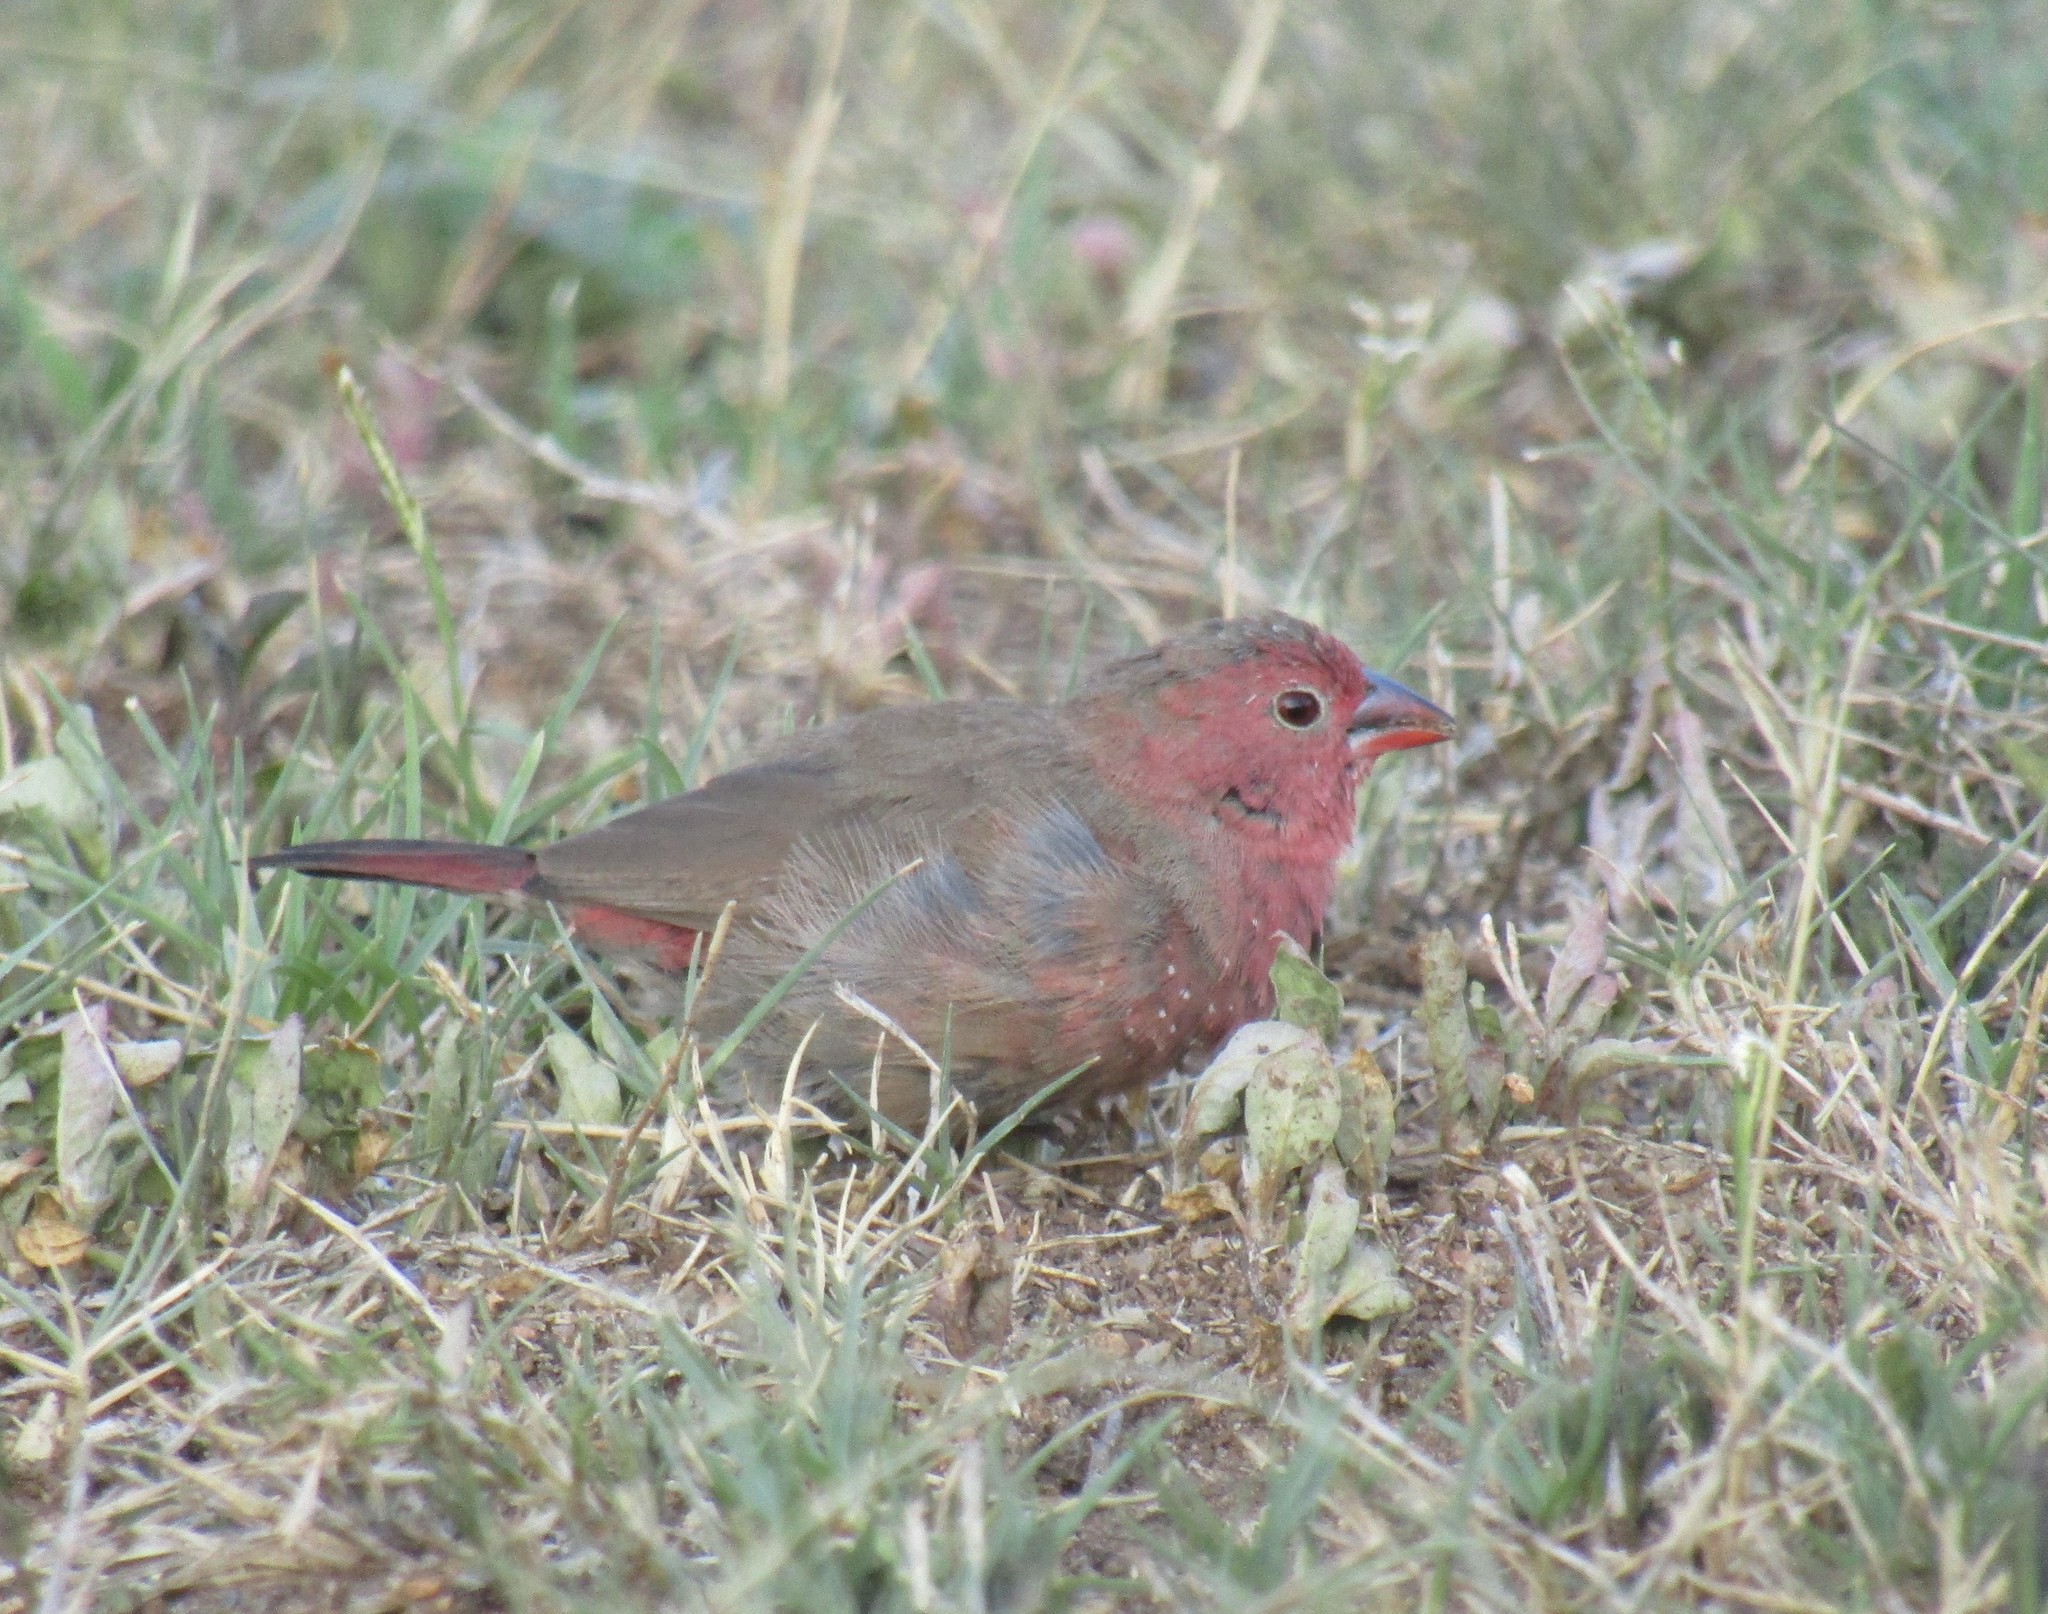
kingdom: Animalia
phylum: Chordata
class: Aves
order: Passeriformes
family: Estrildidae
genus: Lagonosticta
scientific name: Lagonosticta senegala
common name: Red-billed firefinch
